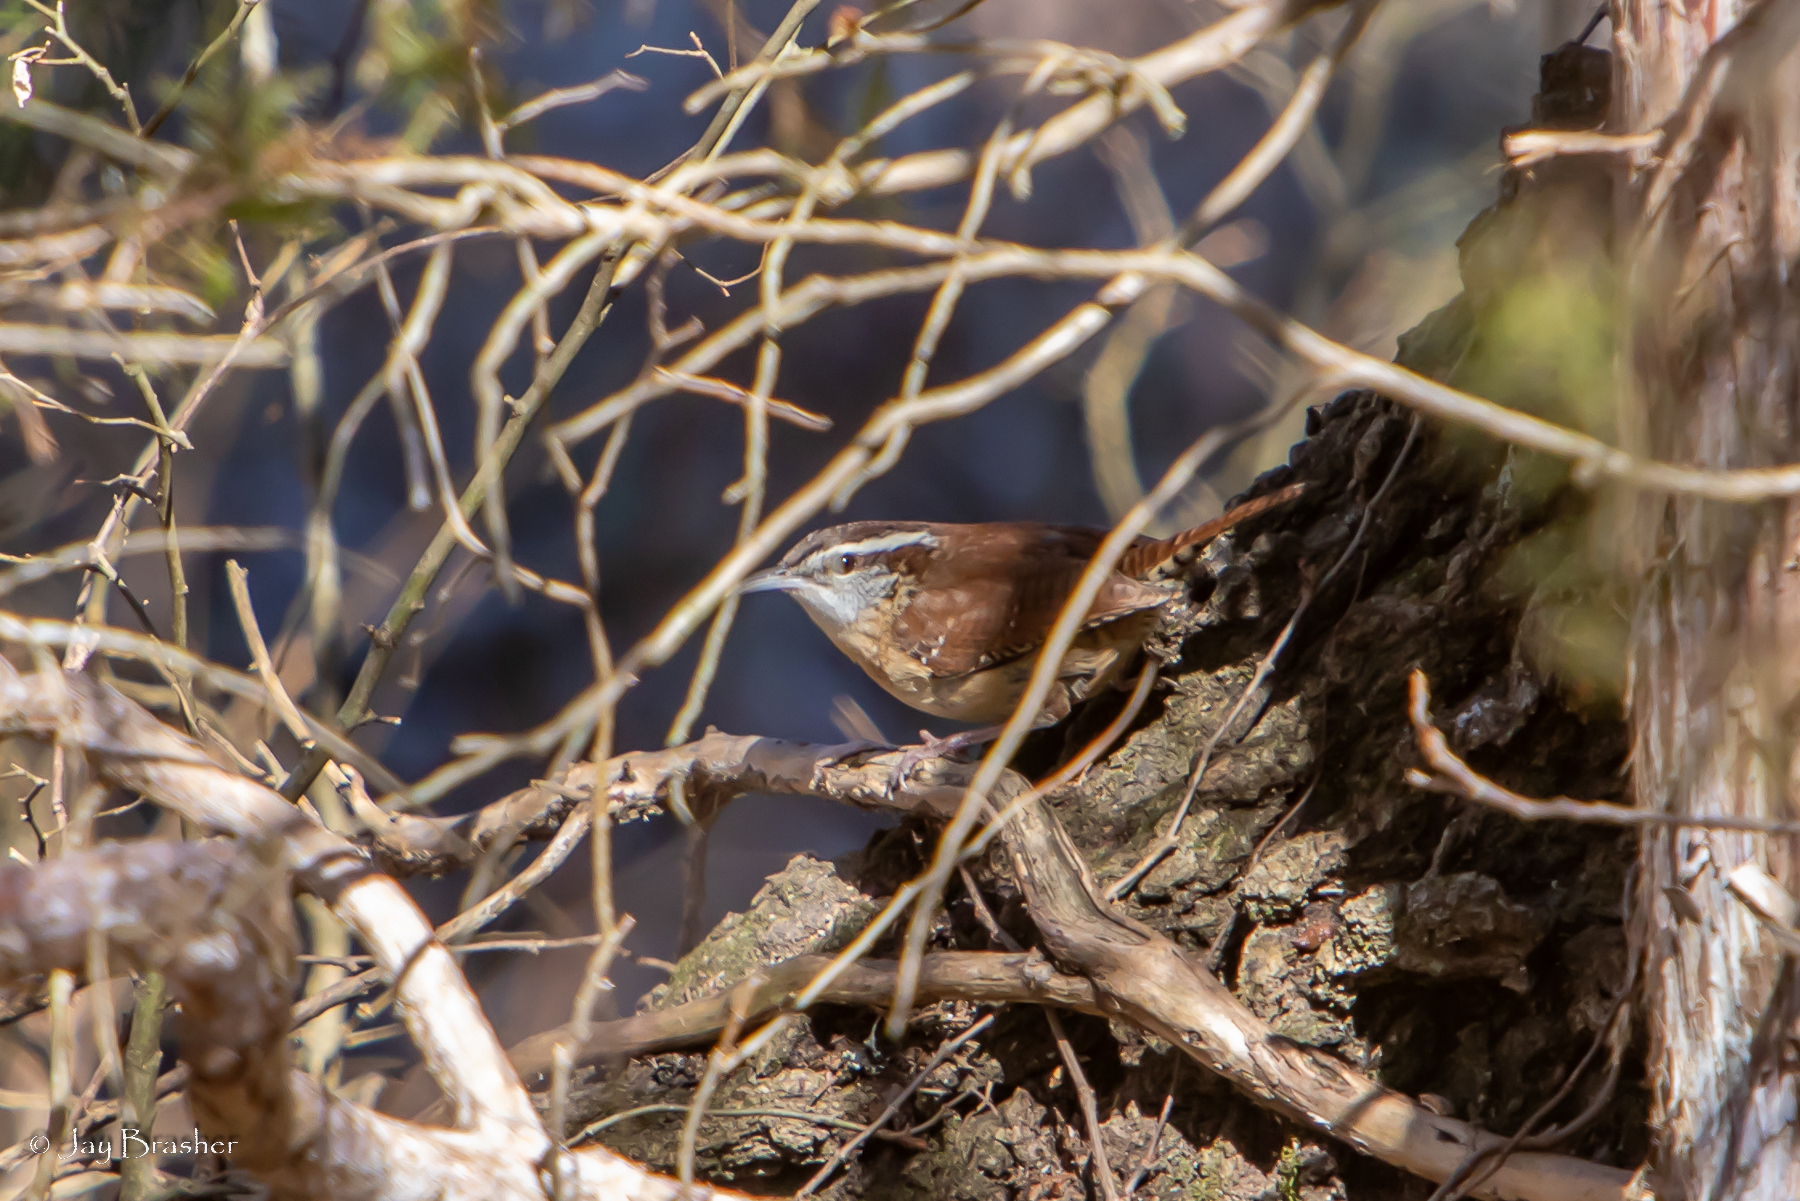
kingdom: Animalia
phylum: Chordata
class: Aves
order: Passeriformes
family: Troglodytidae
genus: Thryothorus
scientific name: Thryothorus ludovicianus
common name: Carolina wren
